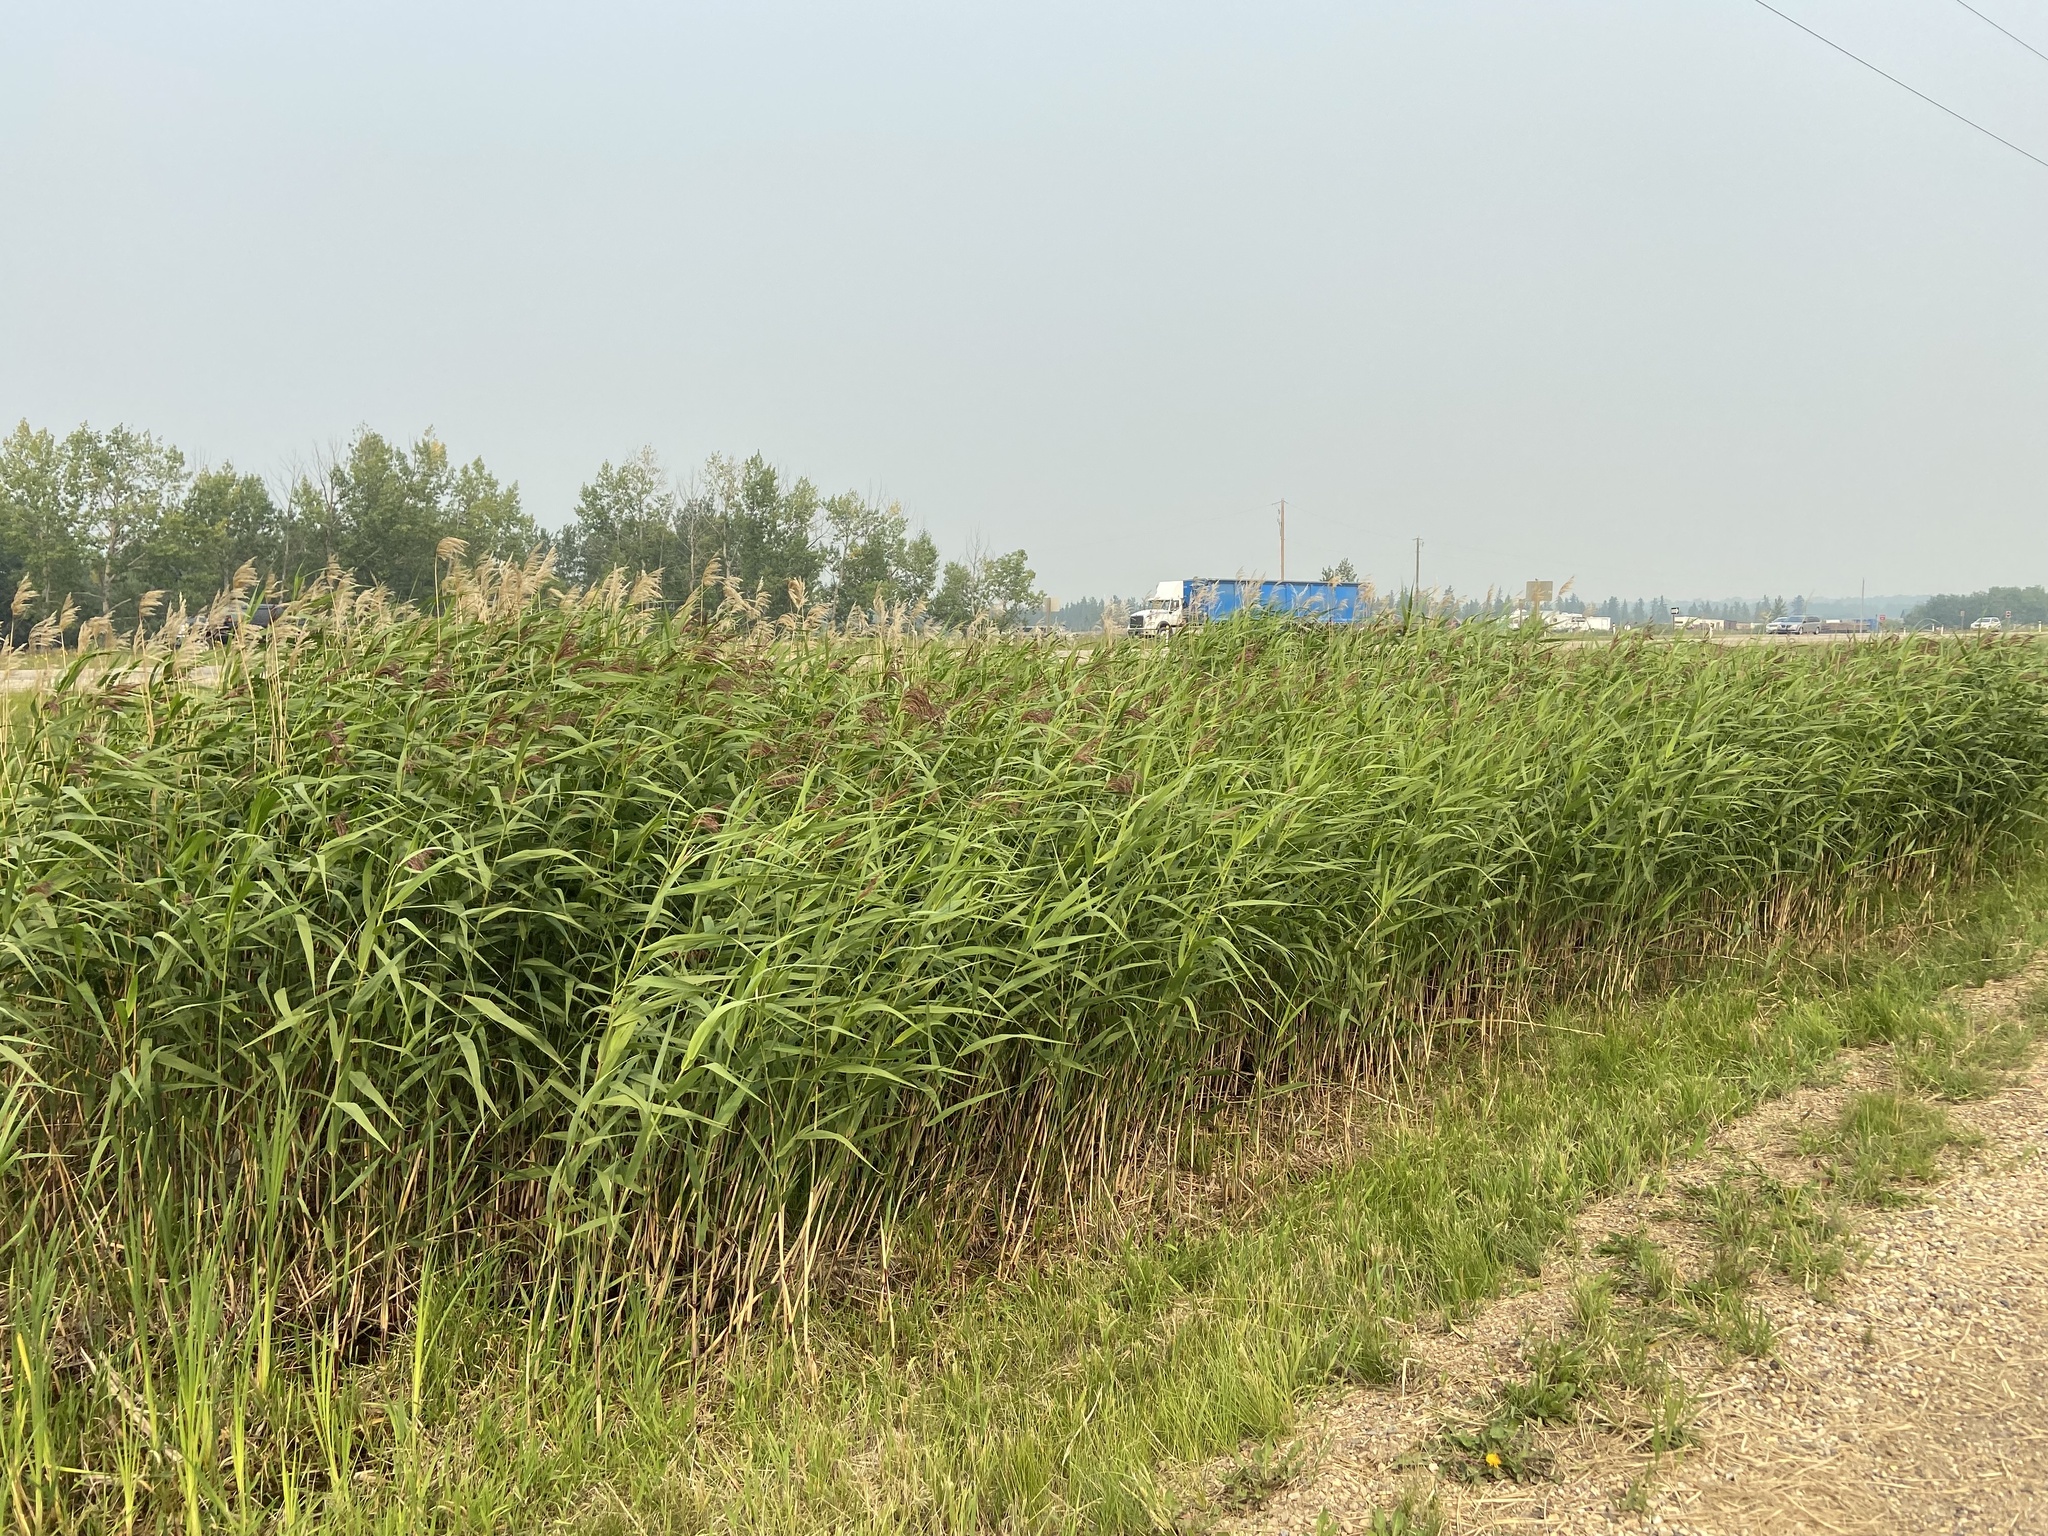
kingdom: Plantae
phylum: Tracheophyta
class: Liliopsida
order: Poales
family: Poaceae
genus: Phragmites
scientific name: Phragmites australis
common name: Common reed
